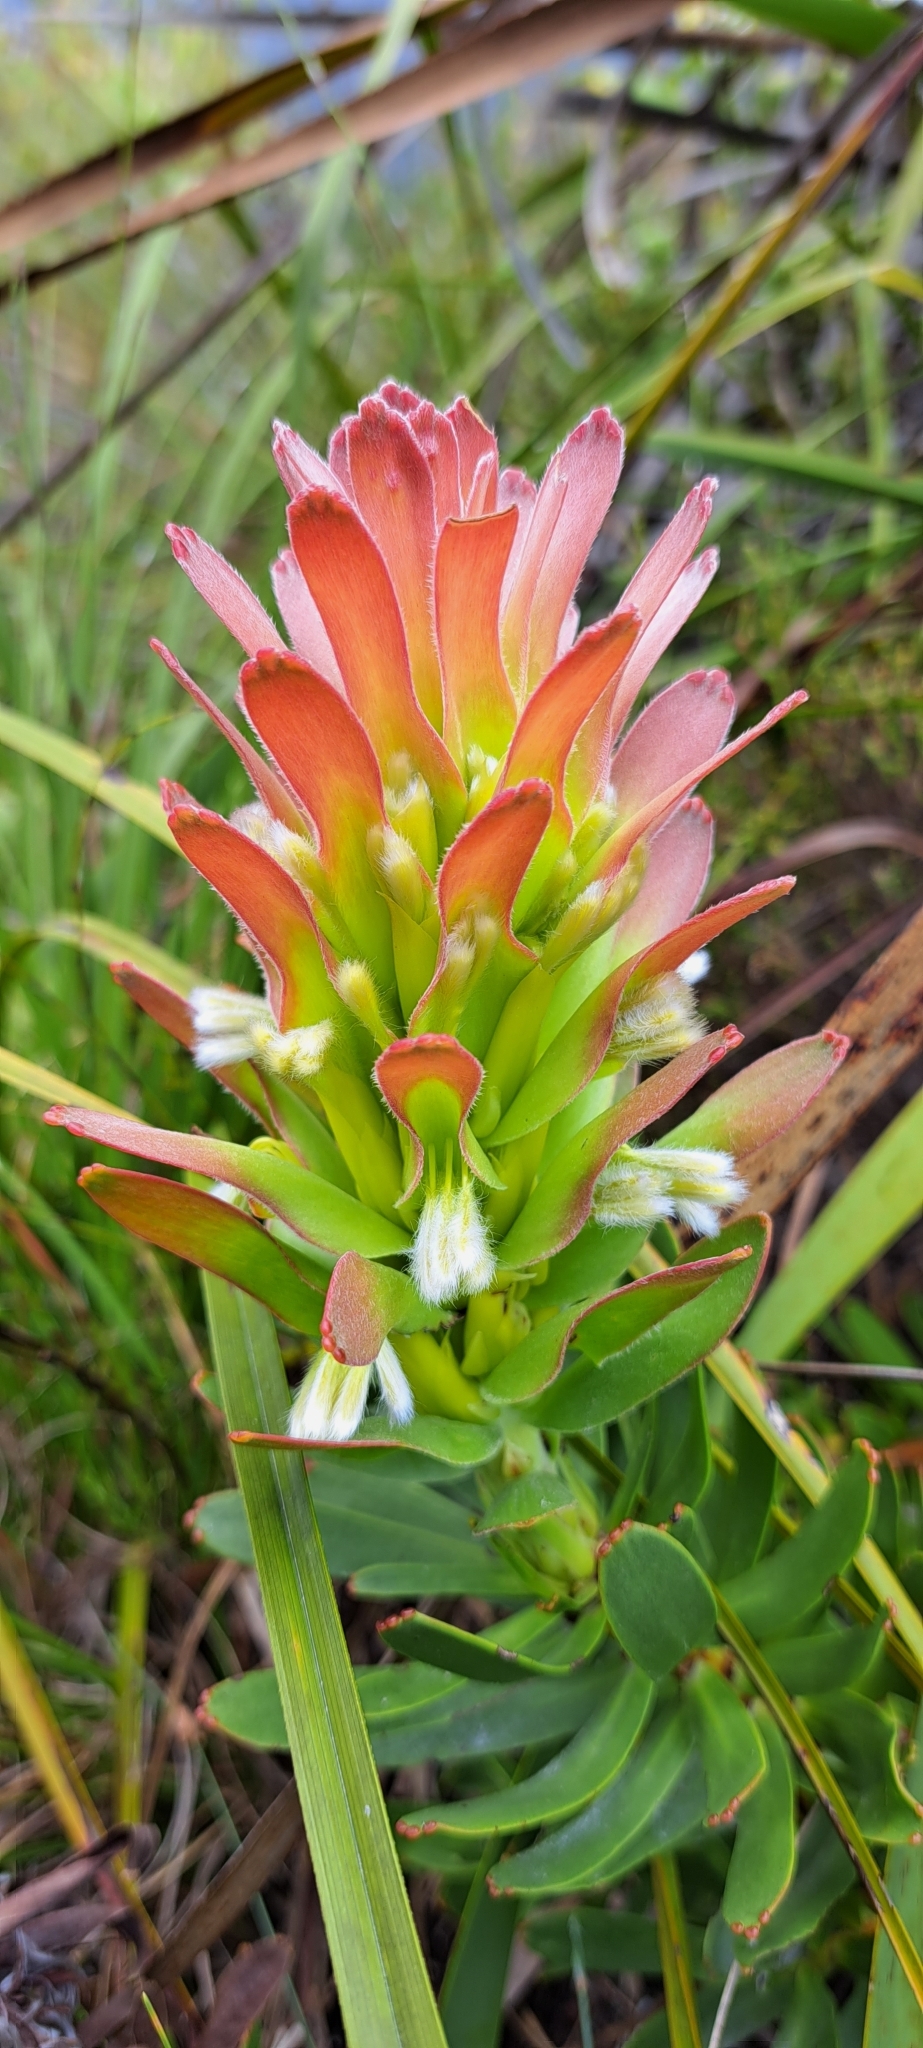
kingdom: Plantae
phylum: Tracheophyta
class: Magnoliopsida
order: Proteales
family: Proteaceae
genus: Mimetes
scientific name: Mimetes cucullatus
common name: Common pagoda
